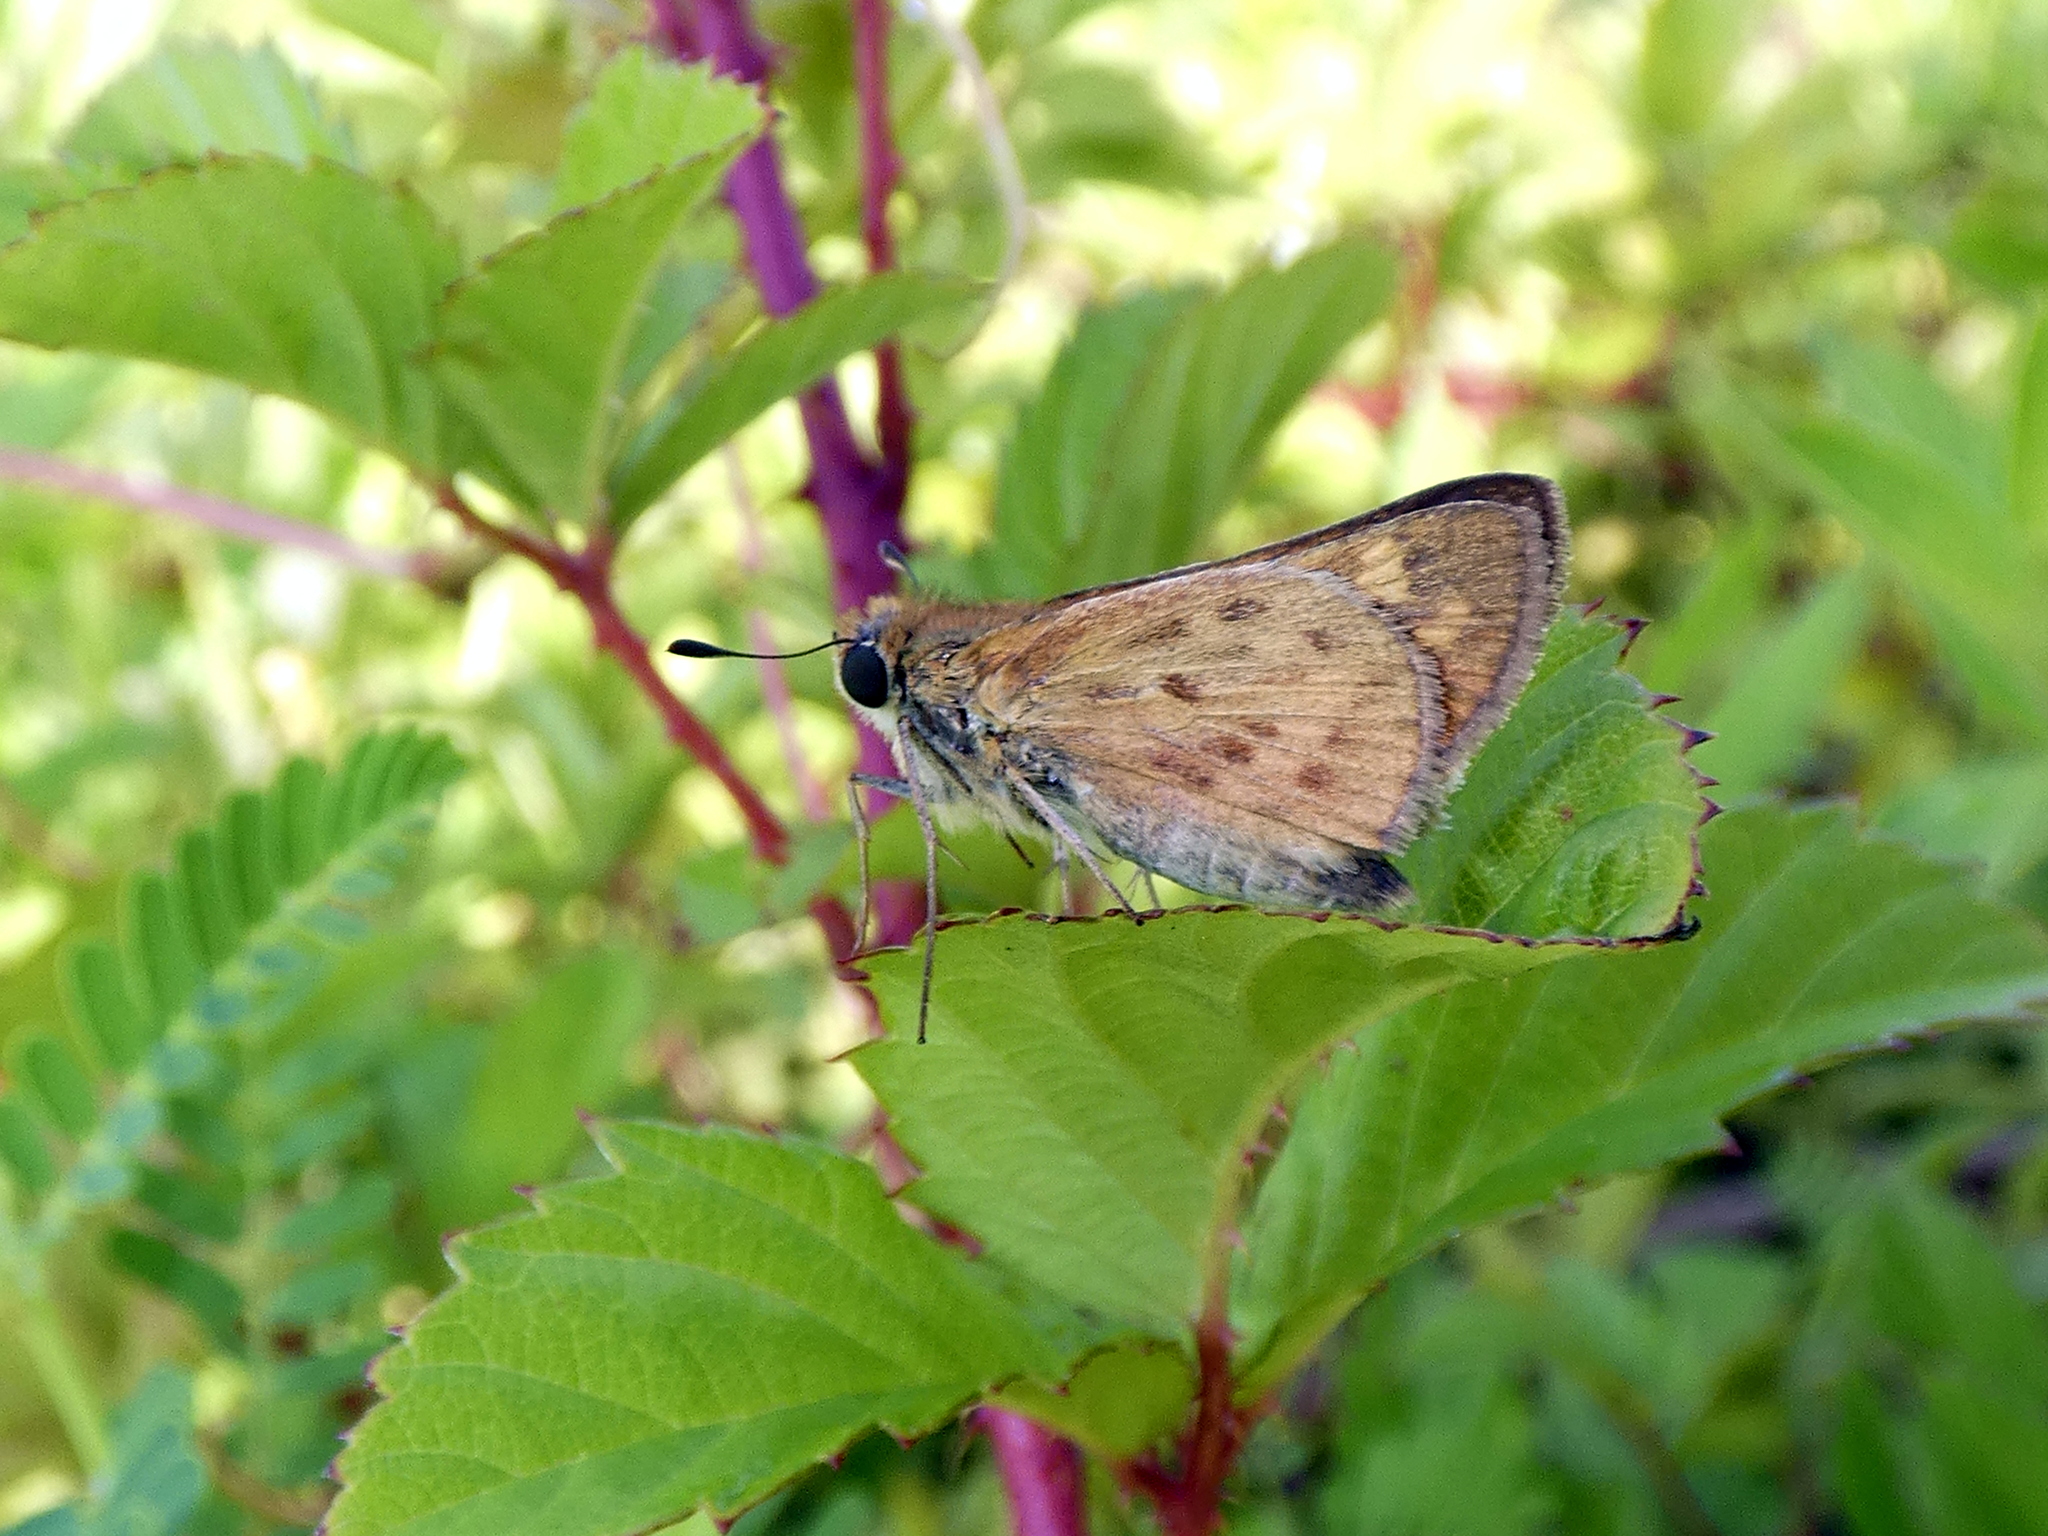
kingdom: Animalia
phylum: Arthropoda
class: Insecta
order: Lepidoptera
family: Hesperiidae
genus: Hylephila
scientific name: Hylephila phyleus
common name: Fiery skipper
